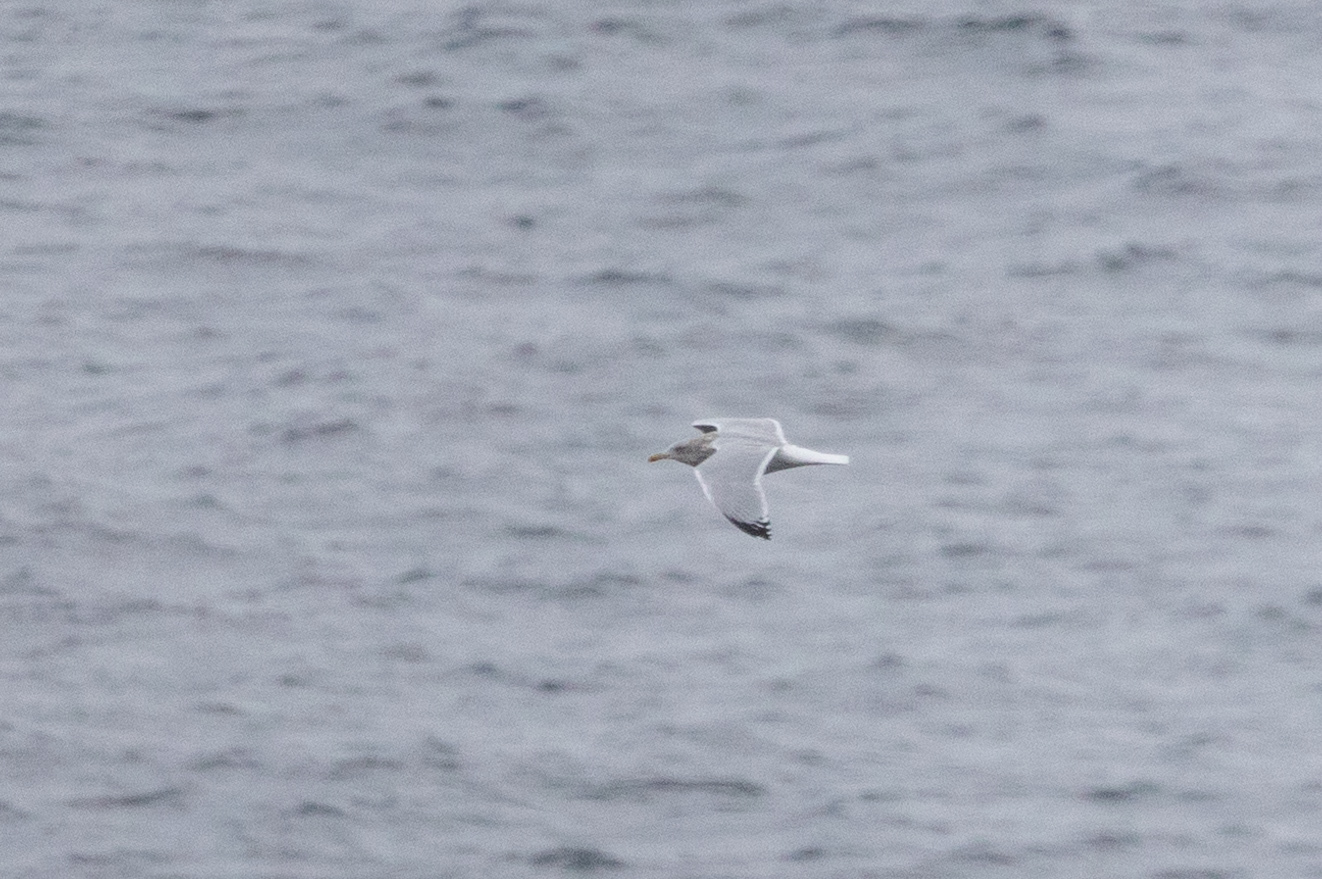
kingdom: Animalia
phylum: Chordata
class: Aves
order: Charadriiformes
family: Laridae
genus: Larus
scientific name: Larus argentatus
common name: Herring gull
